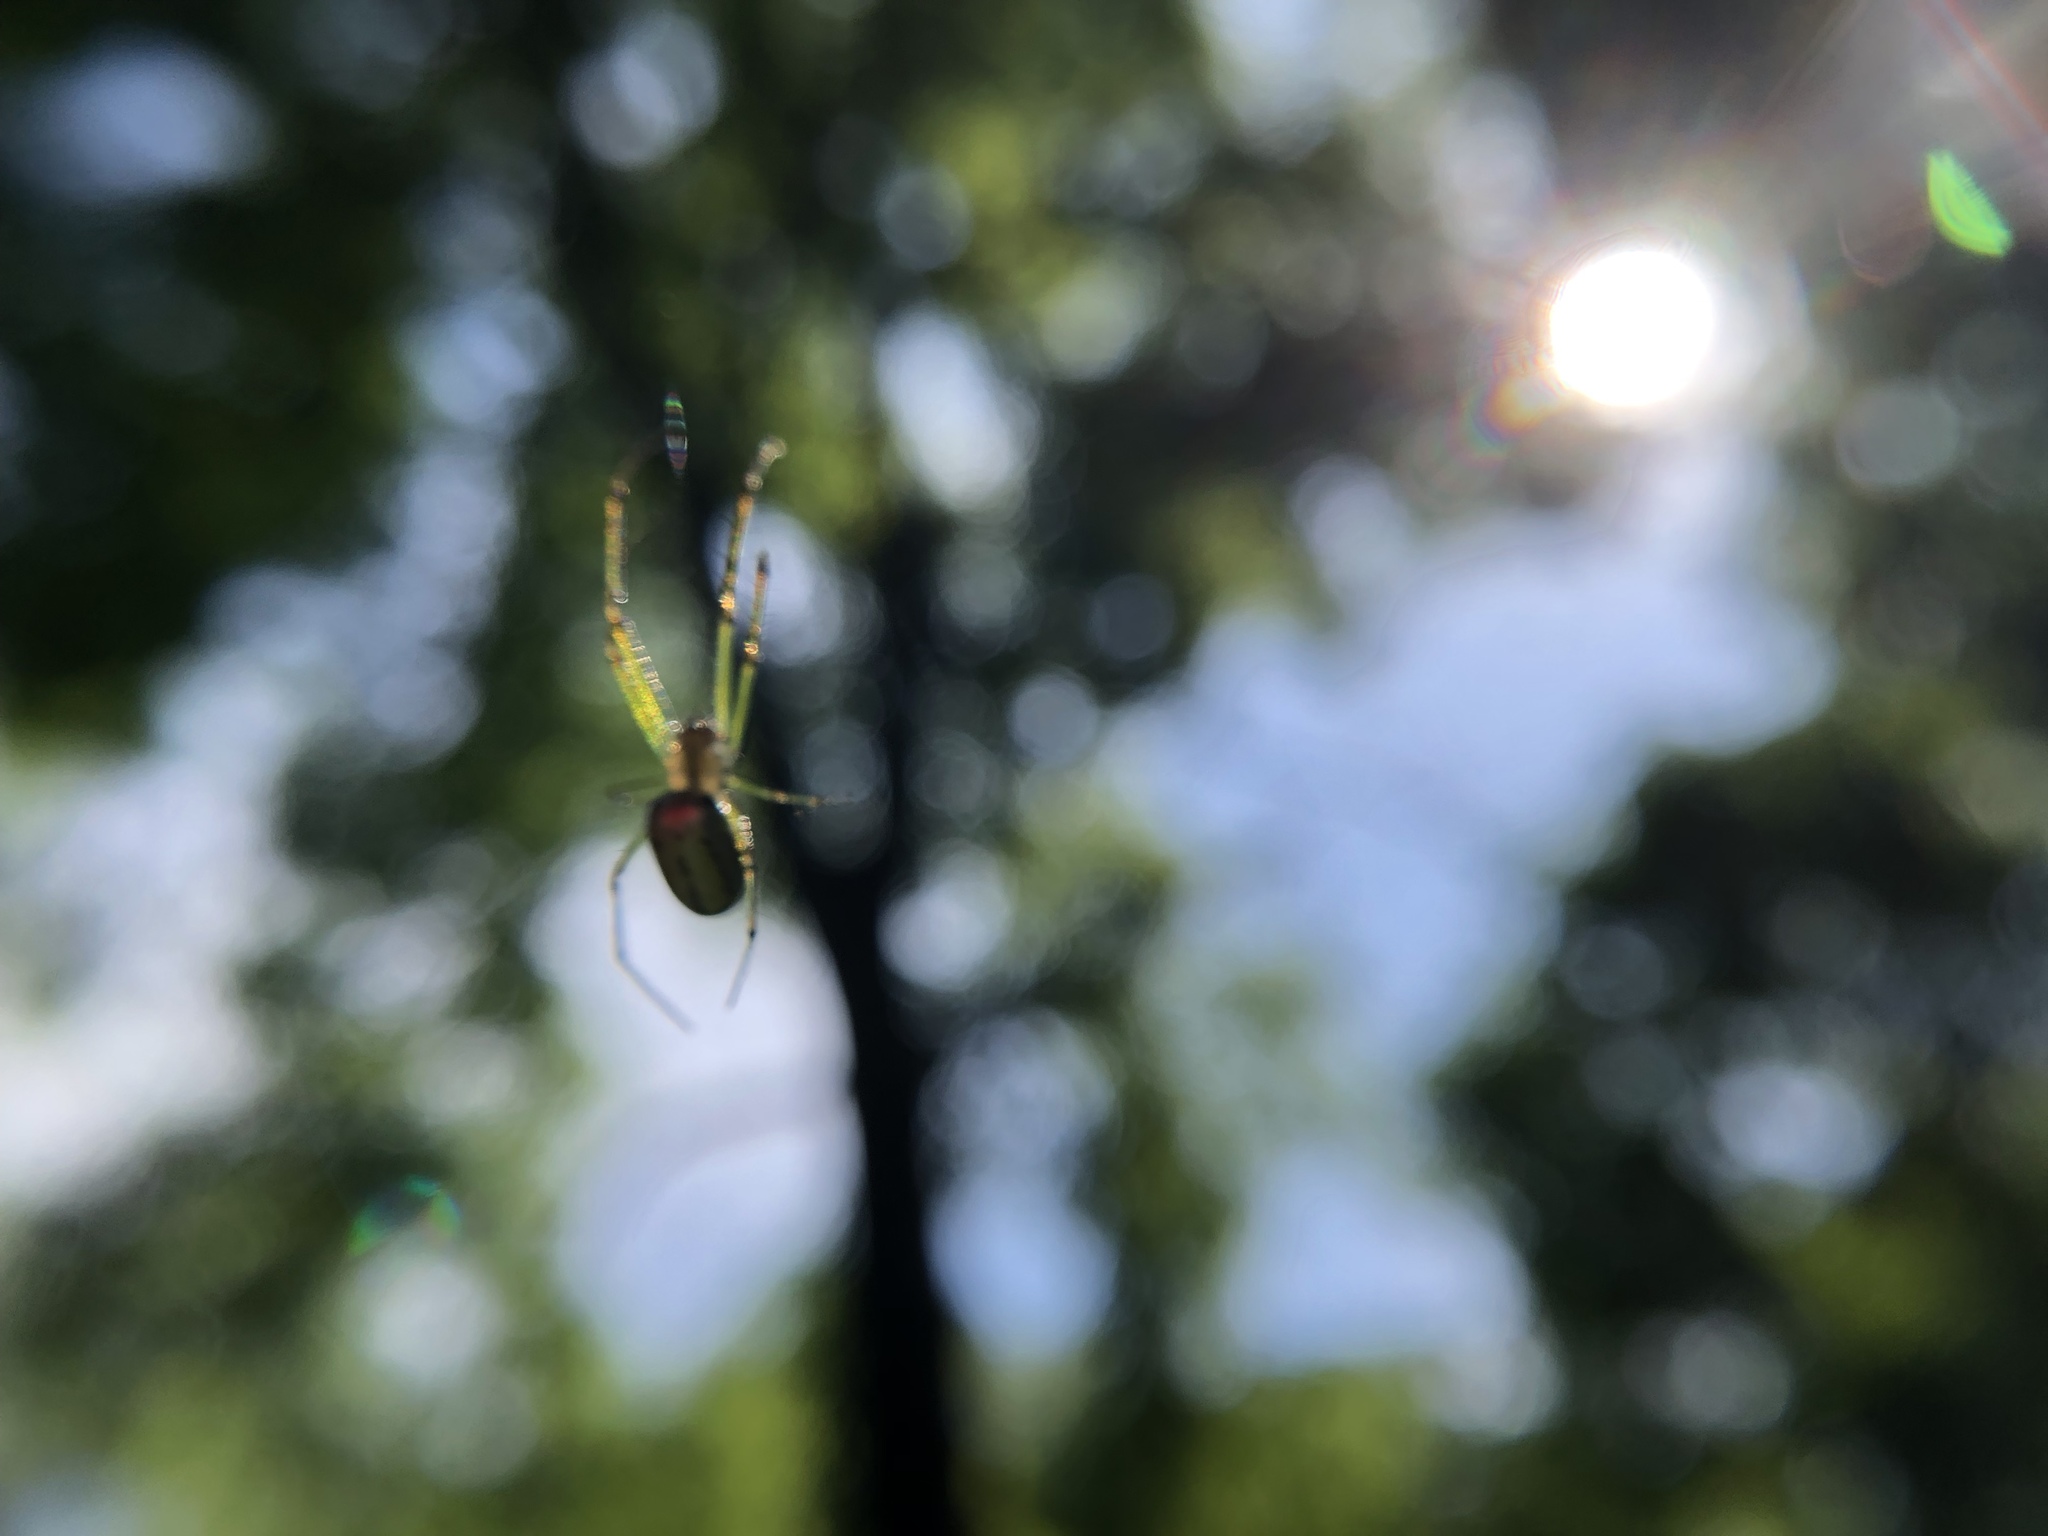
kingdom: Animalia
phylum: Arthropoda
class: Arachnida
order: Araneae
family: Tetragnathidae
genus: Leucauge
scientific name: Leucauge venusta
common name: Longjawed orb weavers
